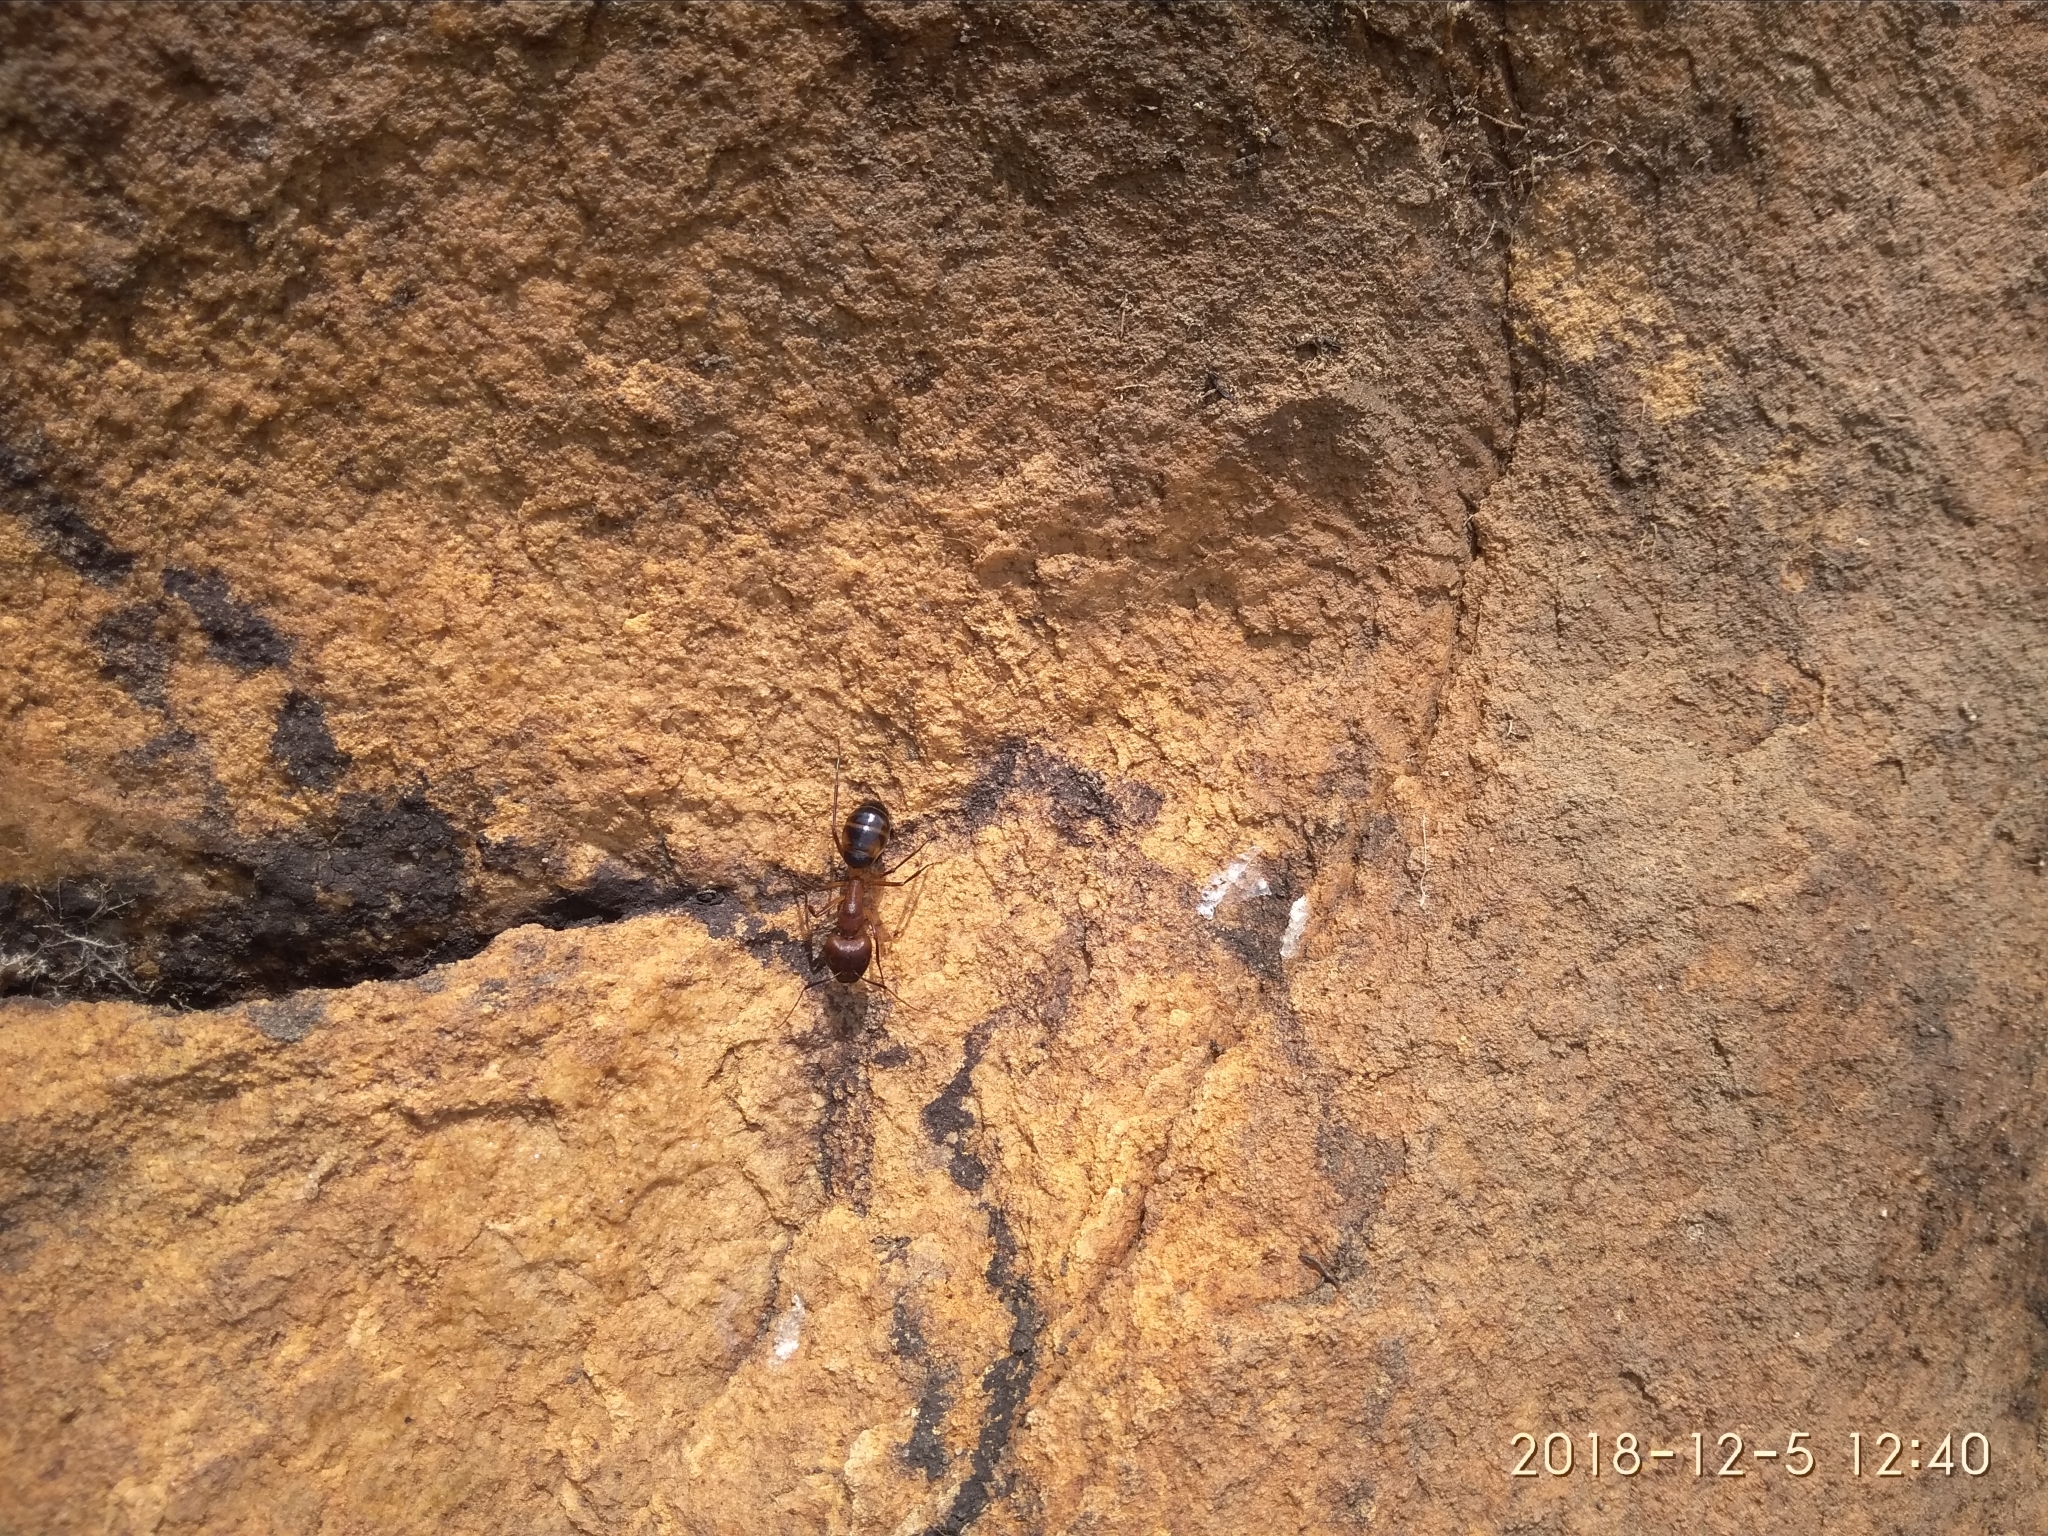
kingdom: Animalia
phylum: Arthropoda
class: Insecta
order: Hymenoptera
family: Formicidae
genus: Camponotus
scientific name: Camponotus maculatus
